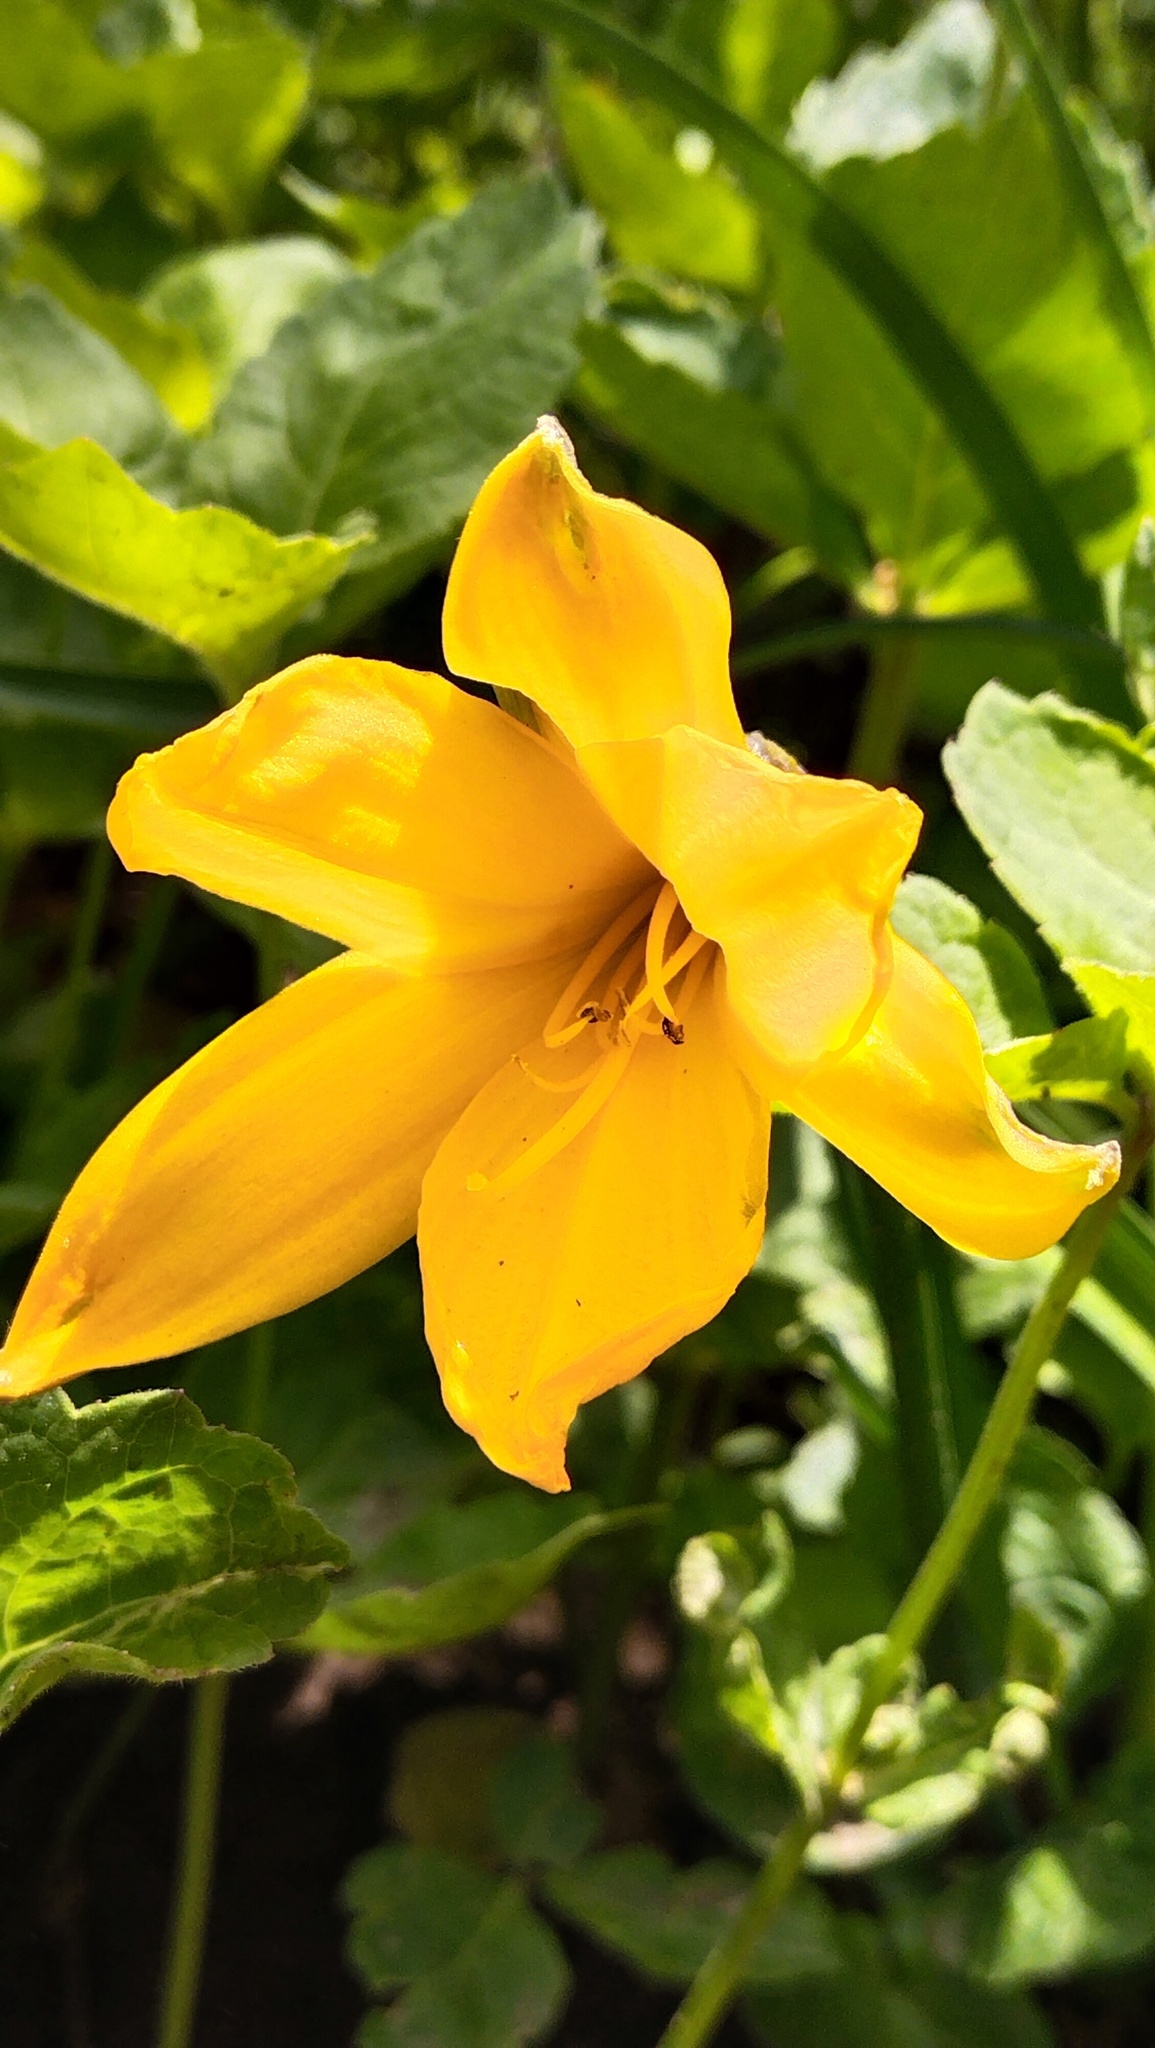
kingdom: Plantae
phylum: Tracheophyta
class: Liliopsida
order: Asparagales
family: Asphodelaceae
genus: Hemerocallis
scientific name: Hemerocallis middendorffii
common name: Amur day-lily
